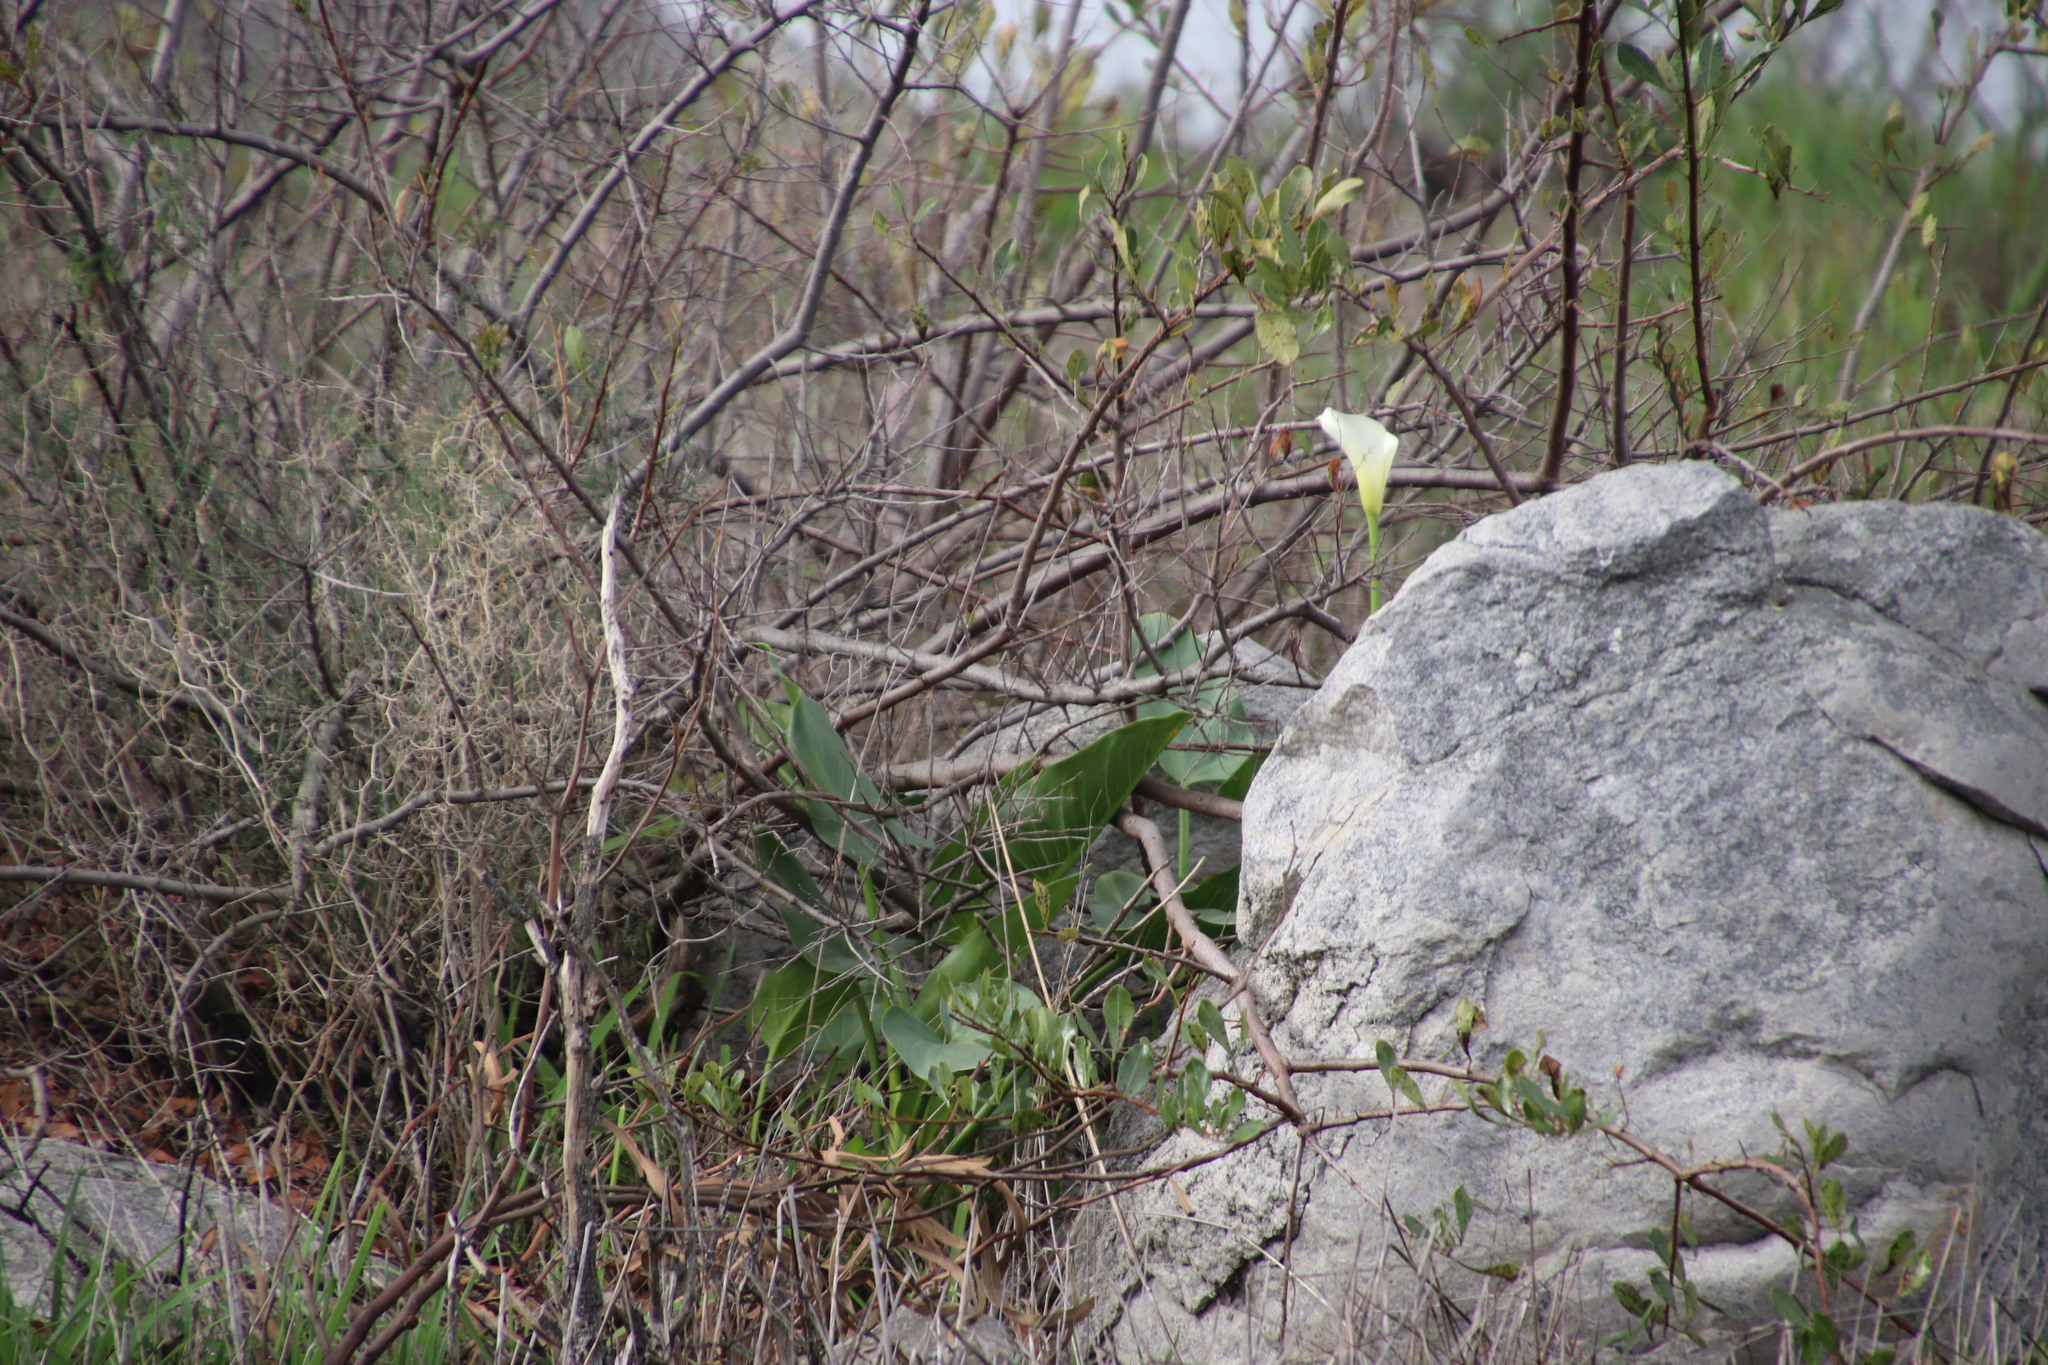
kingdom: Plantae
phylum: Tracheophyta
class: Liliopsida
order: Alismatales
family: Araceae
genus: Zantedeschia
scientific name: Zantedeschia aethiopica
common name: Altar-lily
